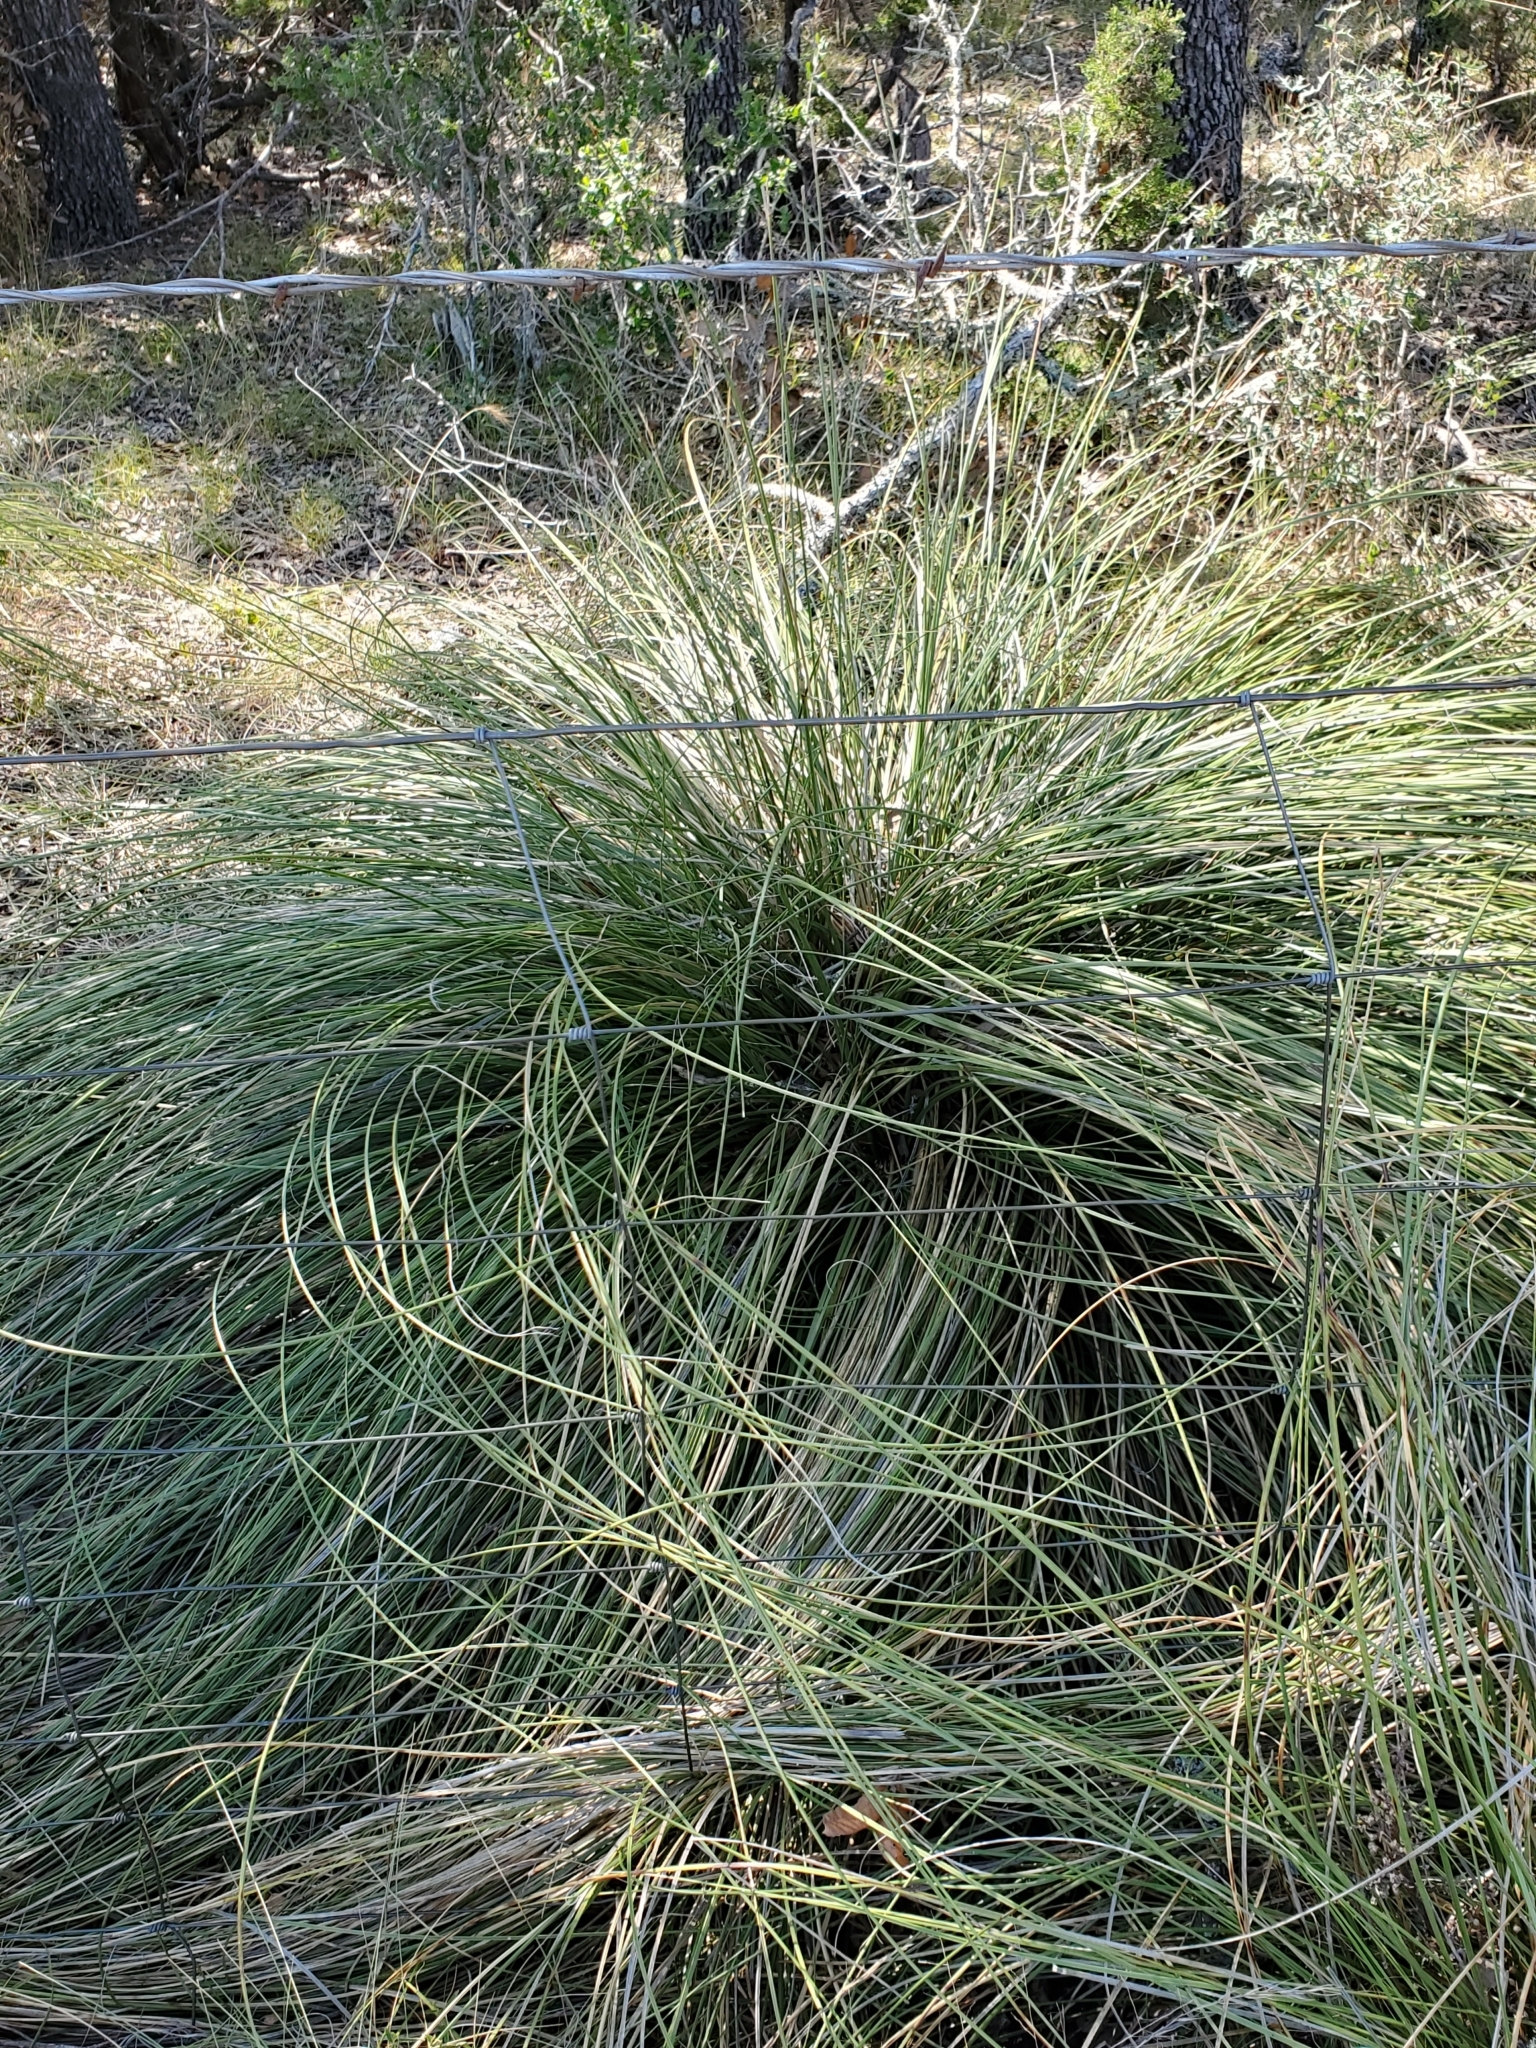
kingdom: Plantae
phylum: Tracheophyta
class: Liliopsida
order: Asparagales
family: Asparagaceae
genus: Nolina
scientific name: Nolina lindheimeriana
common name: Lindheimer's bear-grass
